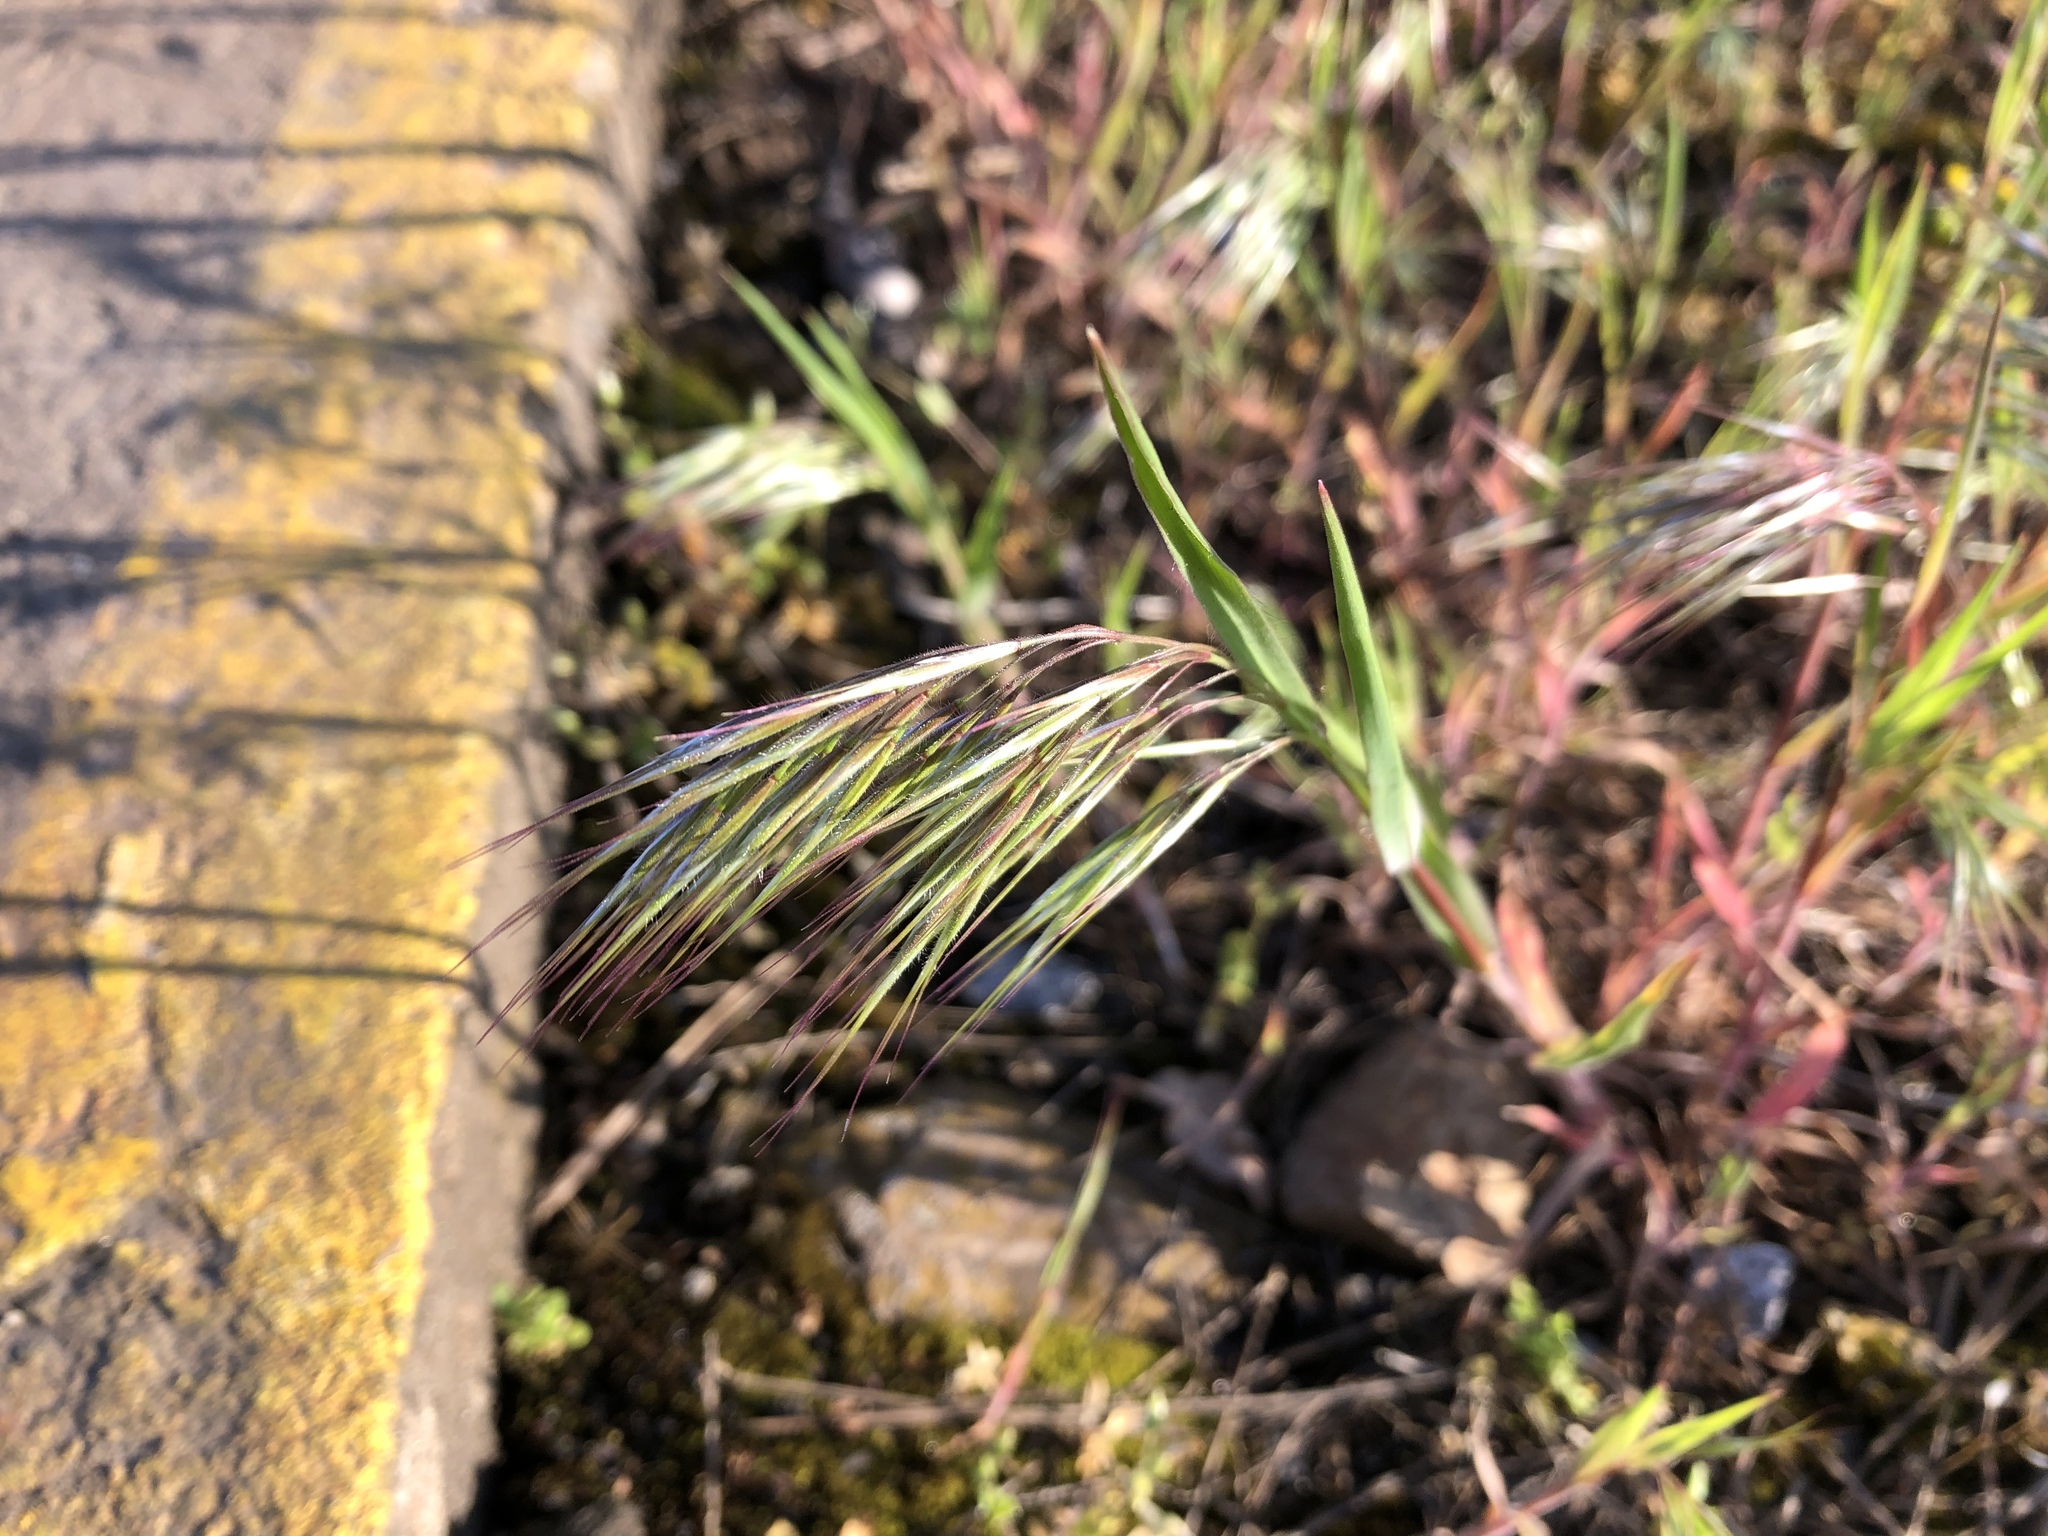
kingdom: Plantae
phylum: Tracheophyta
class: Liliopsida
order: Poales
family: Poaceae
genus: Bromus
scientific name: Bromus tectorum
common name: Cheatgrass
